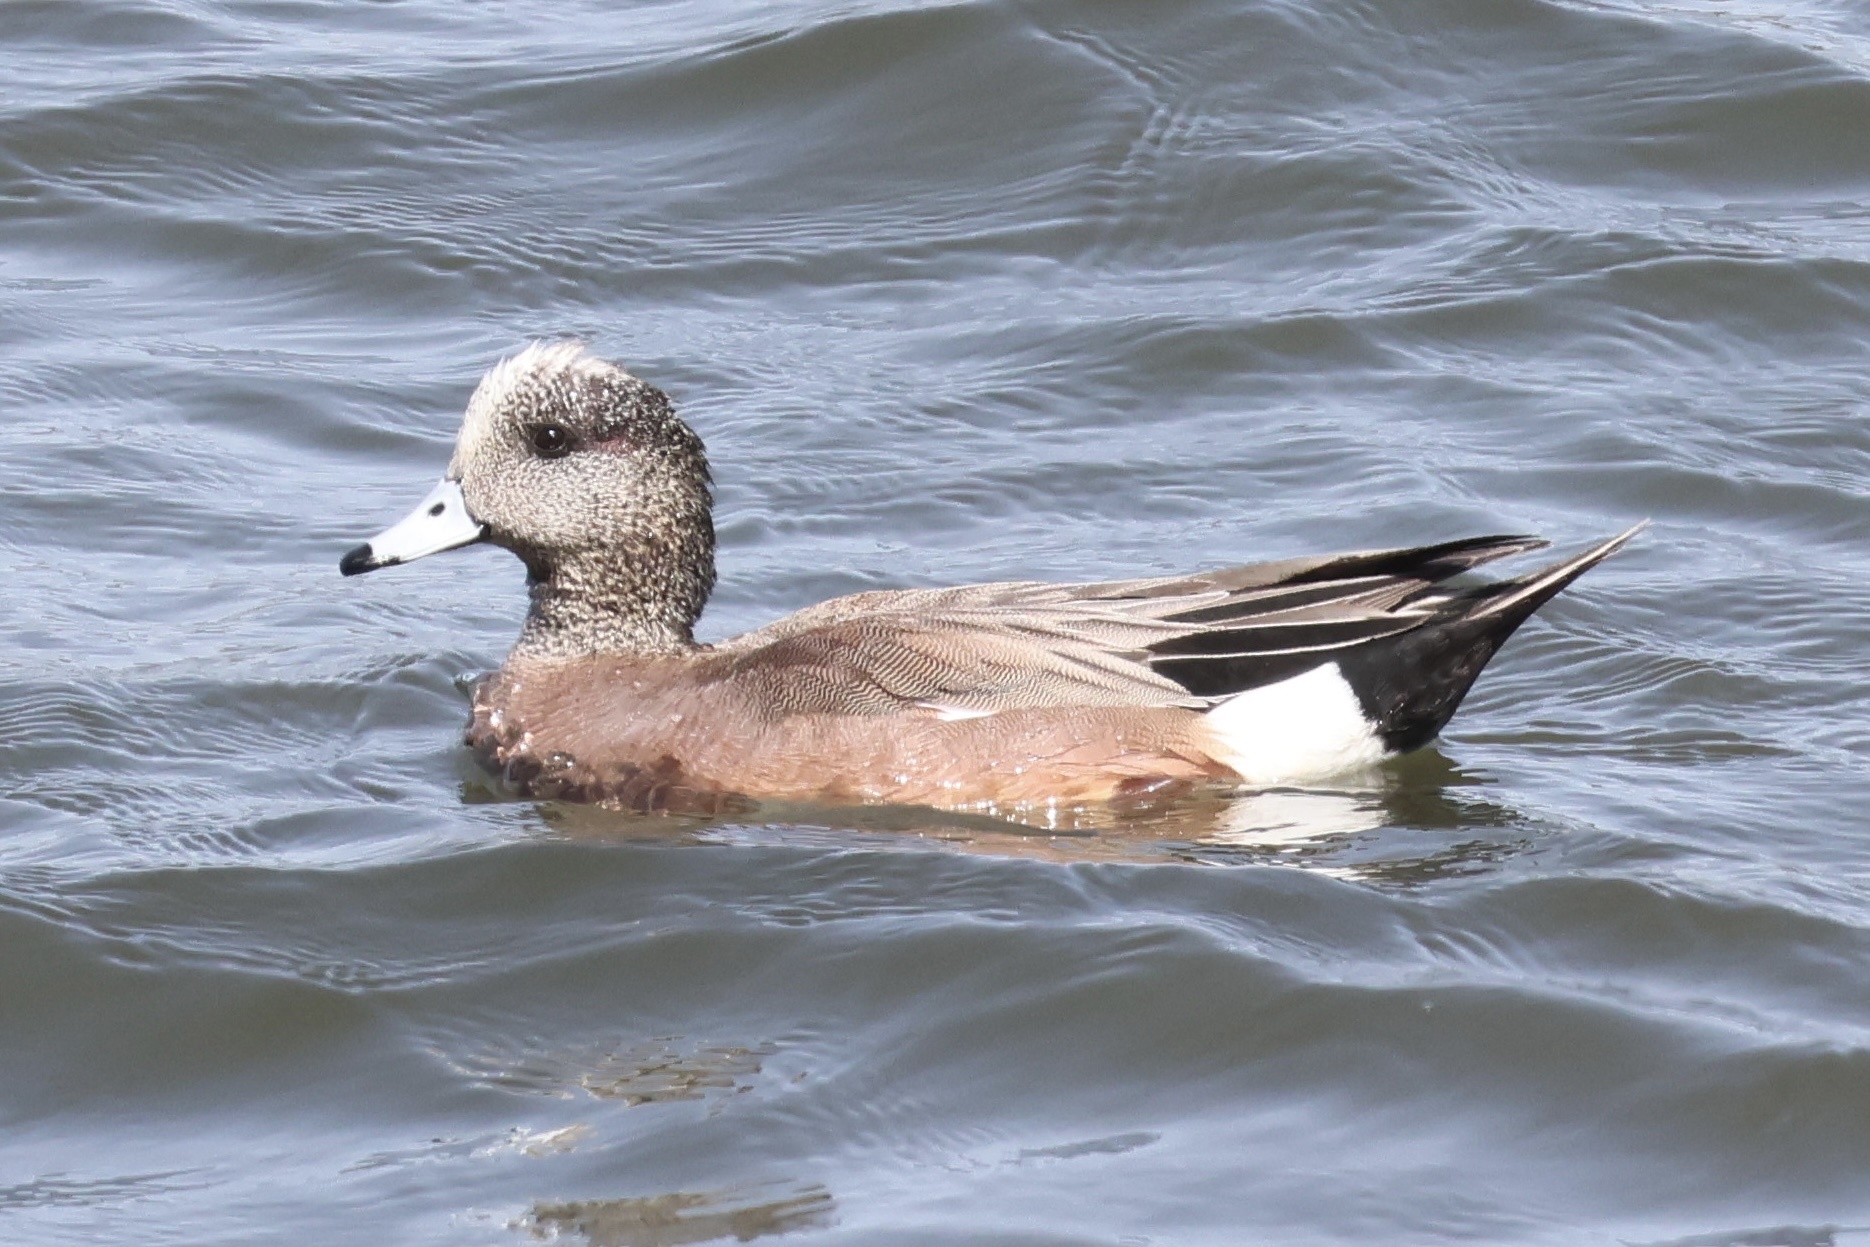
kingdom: Animalia
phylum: Chordata
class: Aves
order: Anseriformes
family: Anatidae
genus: Mareca
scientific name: Mareca americana
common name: American wigeon
